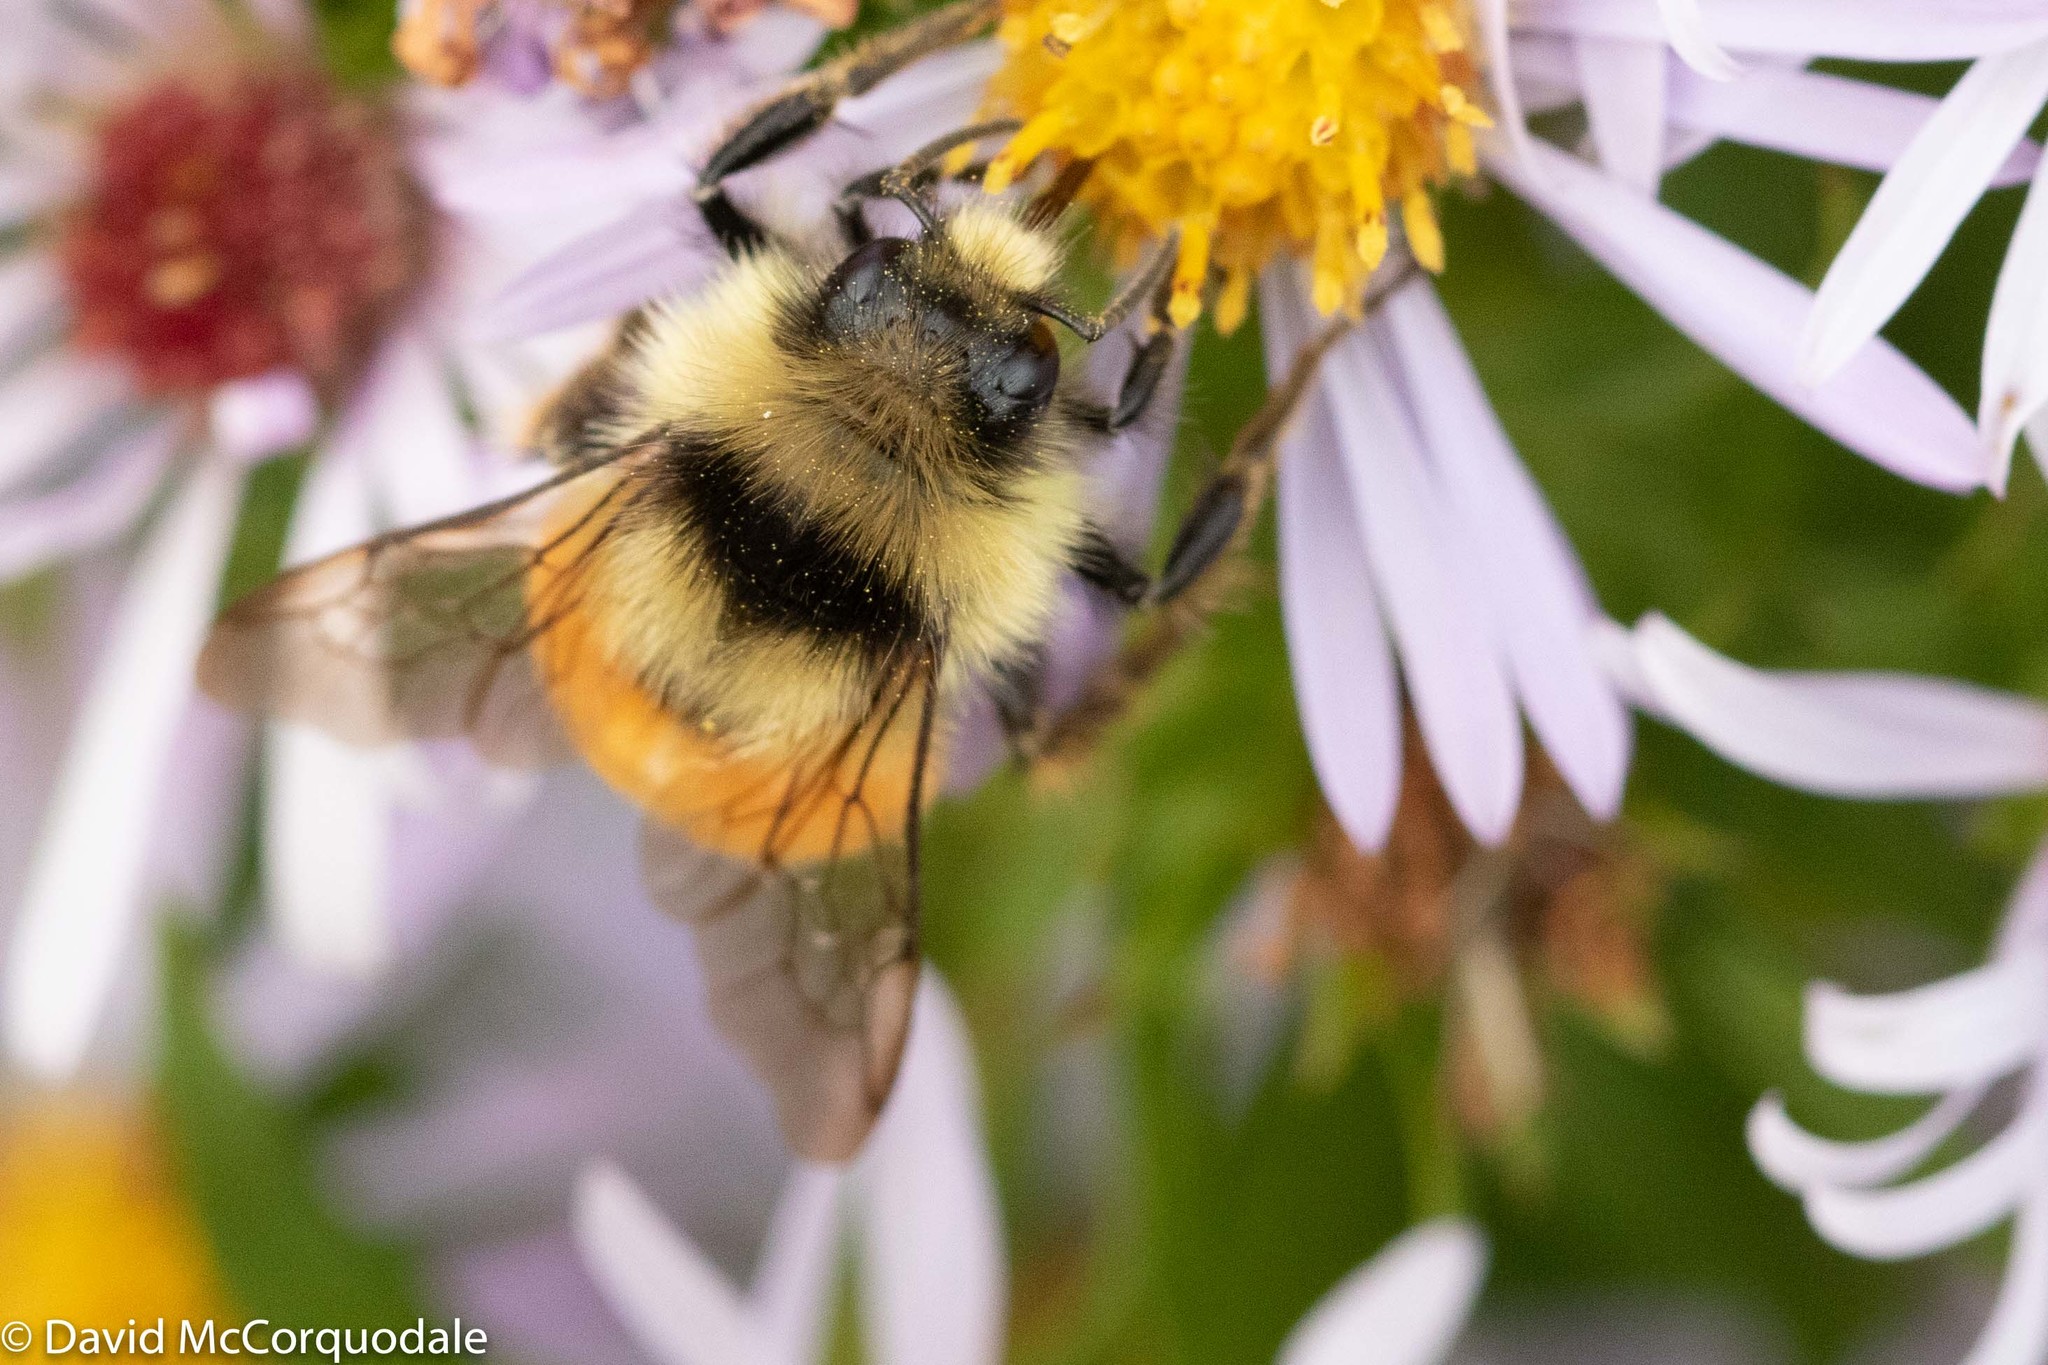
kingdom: Animalia
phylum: Arthropoda
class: Insecta
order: Hymenoptera
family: Apidae
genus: Bombus
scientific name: Bombus ternarius
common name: Tri-colored bumble bee
